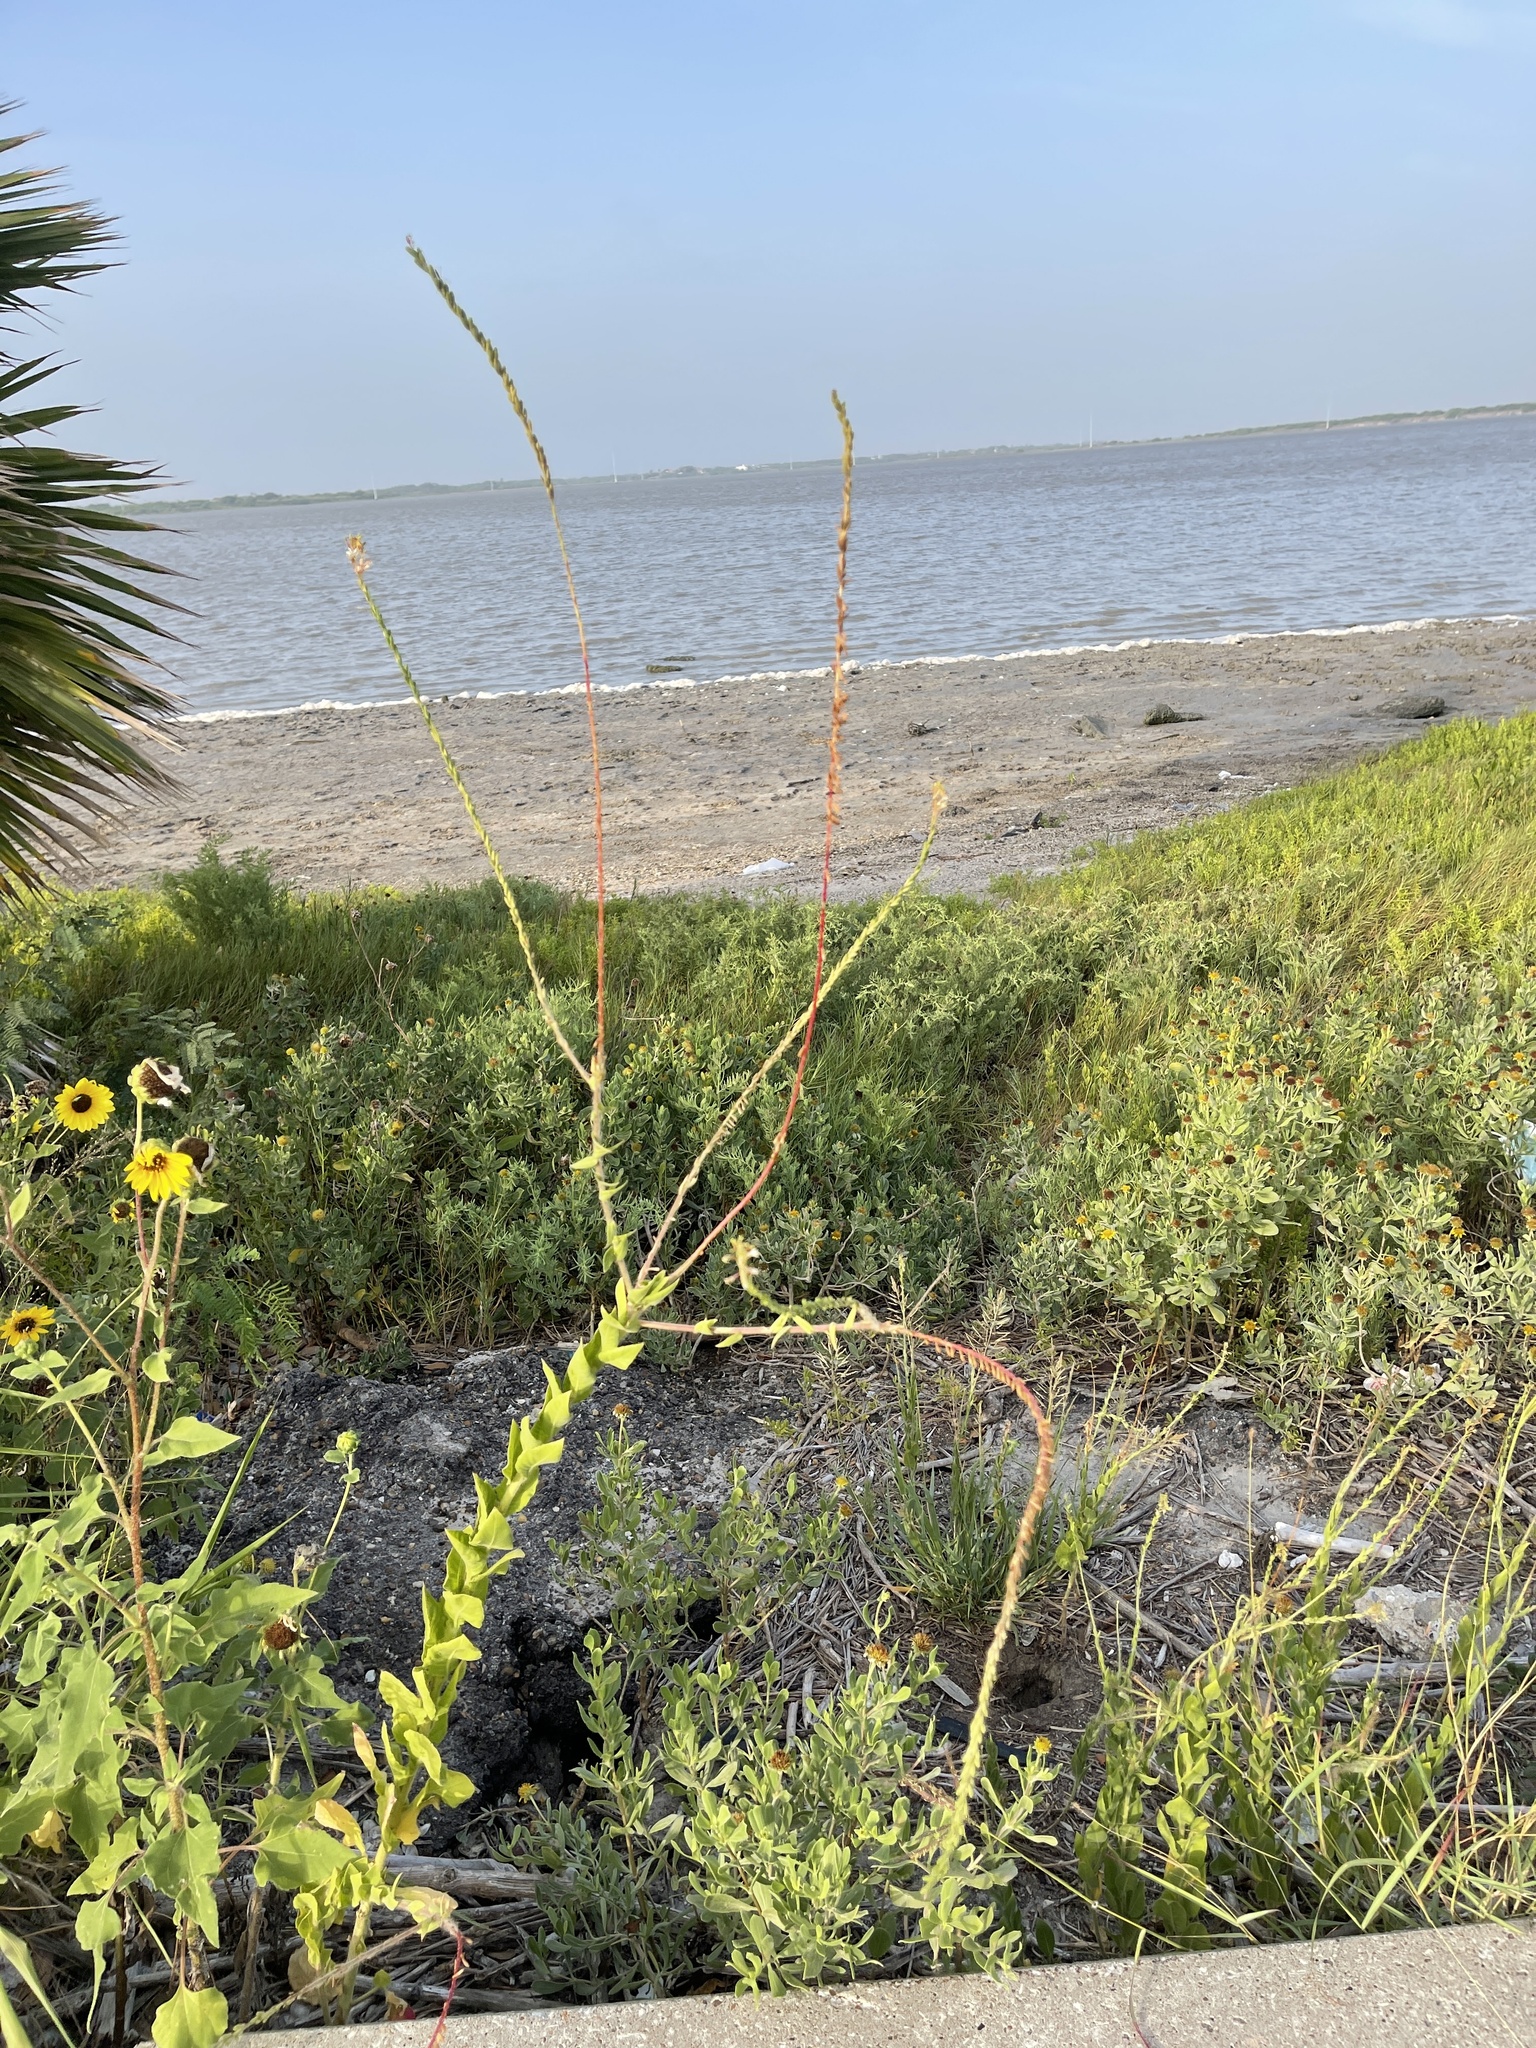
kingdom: Plantae
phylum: Tracheophyta
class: Magnoliopsida
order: Myrtales
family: Onagraceae
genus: Oenothera
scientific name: Oenothera curtiflora
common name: Velvetweed
